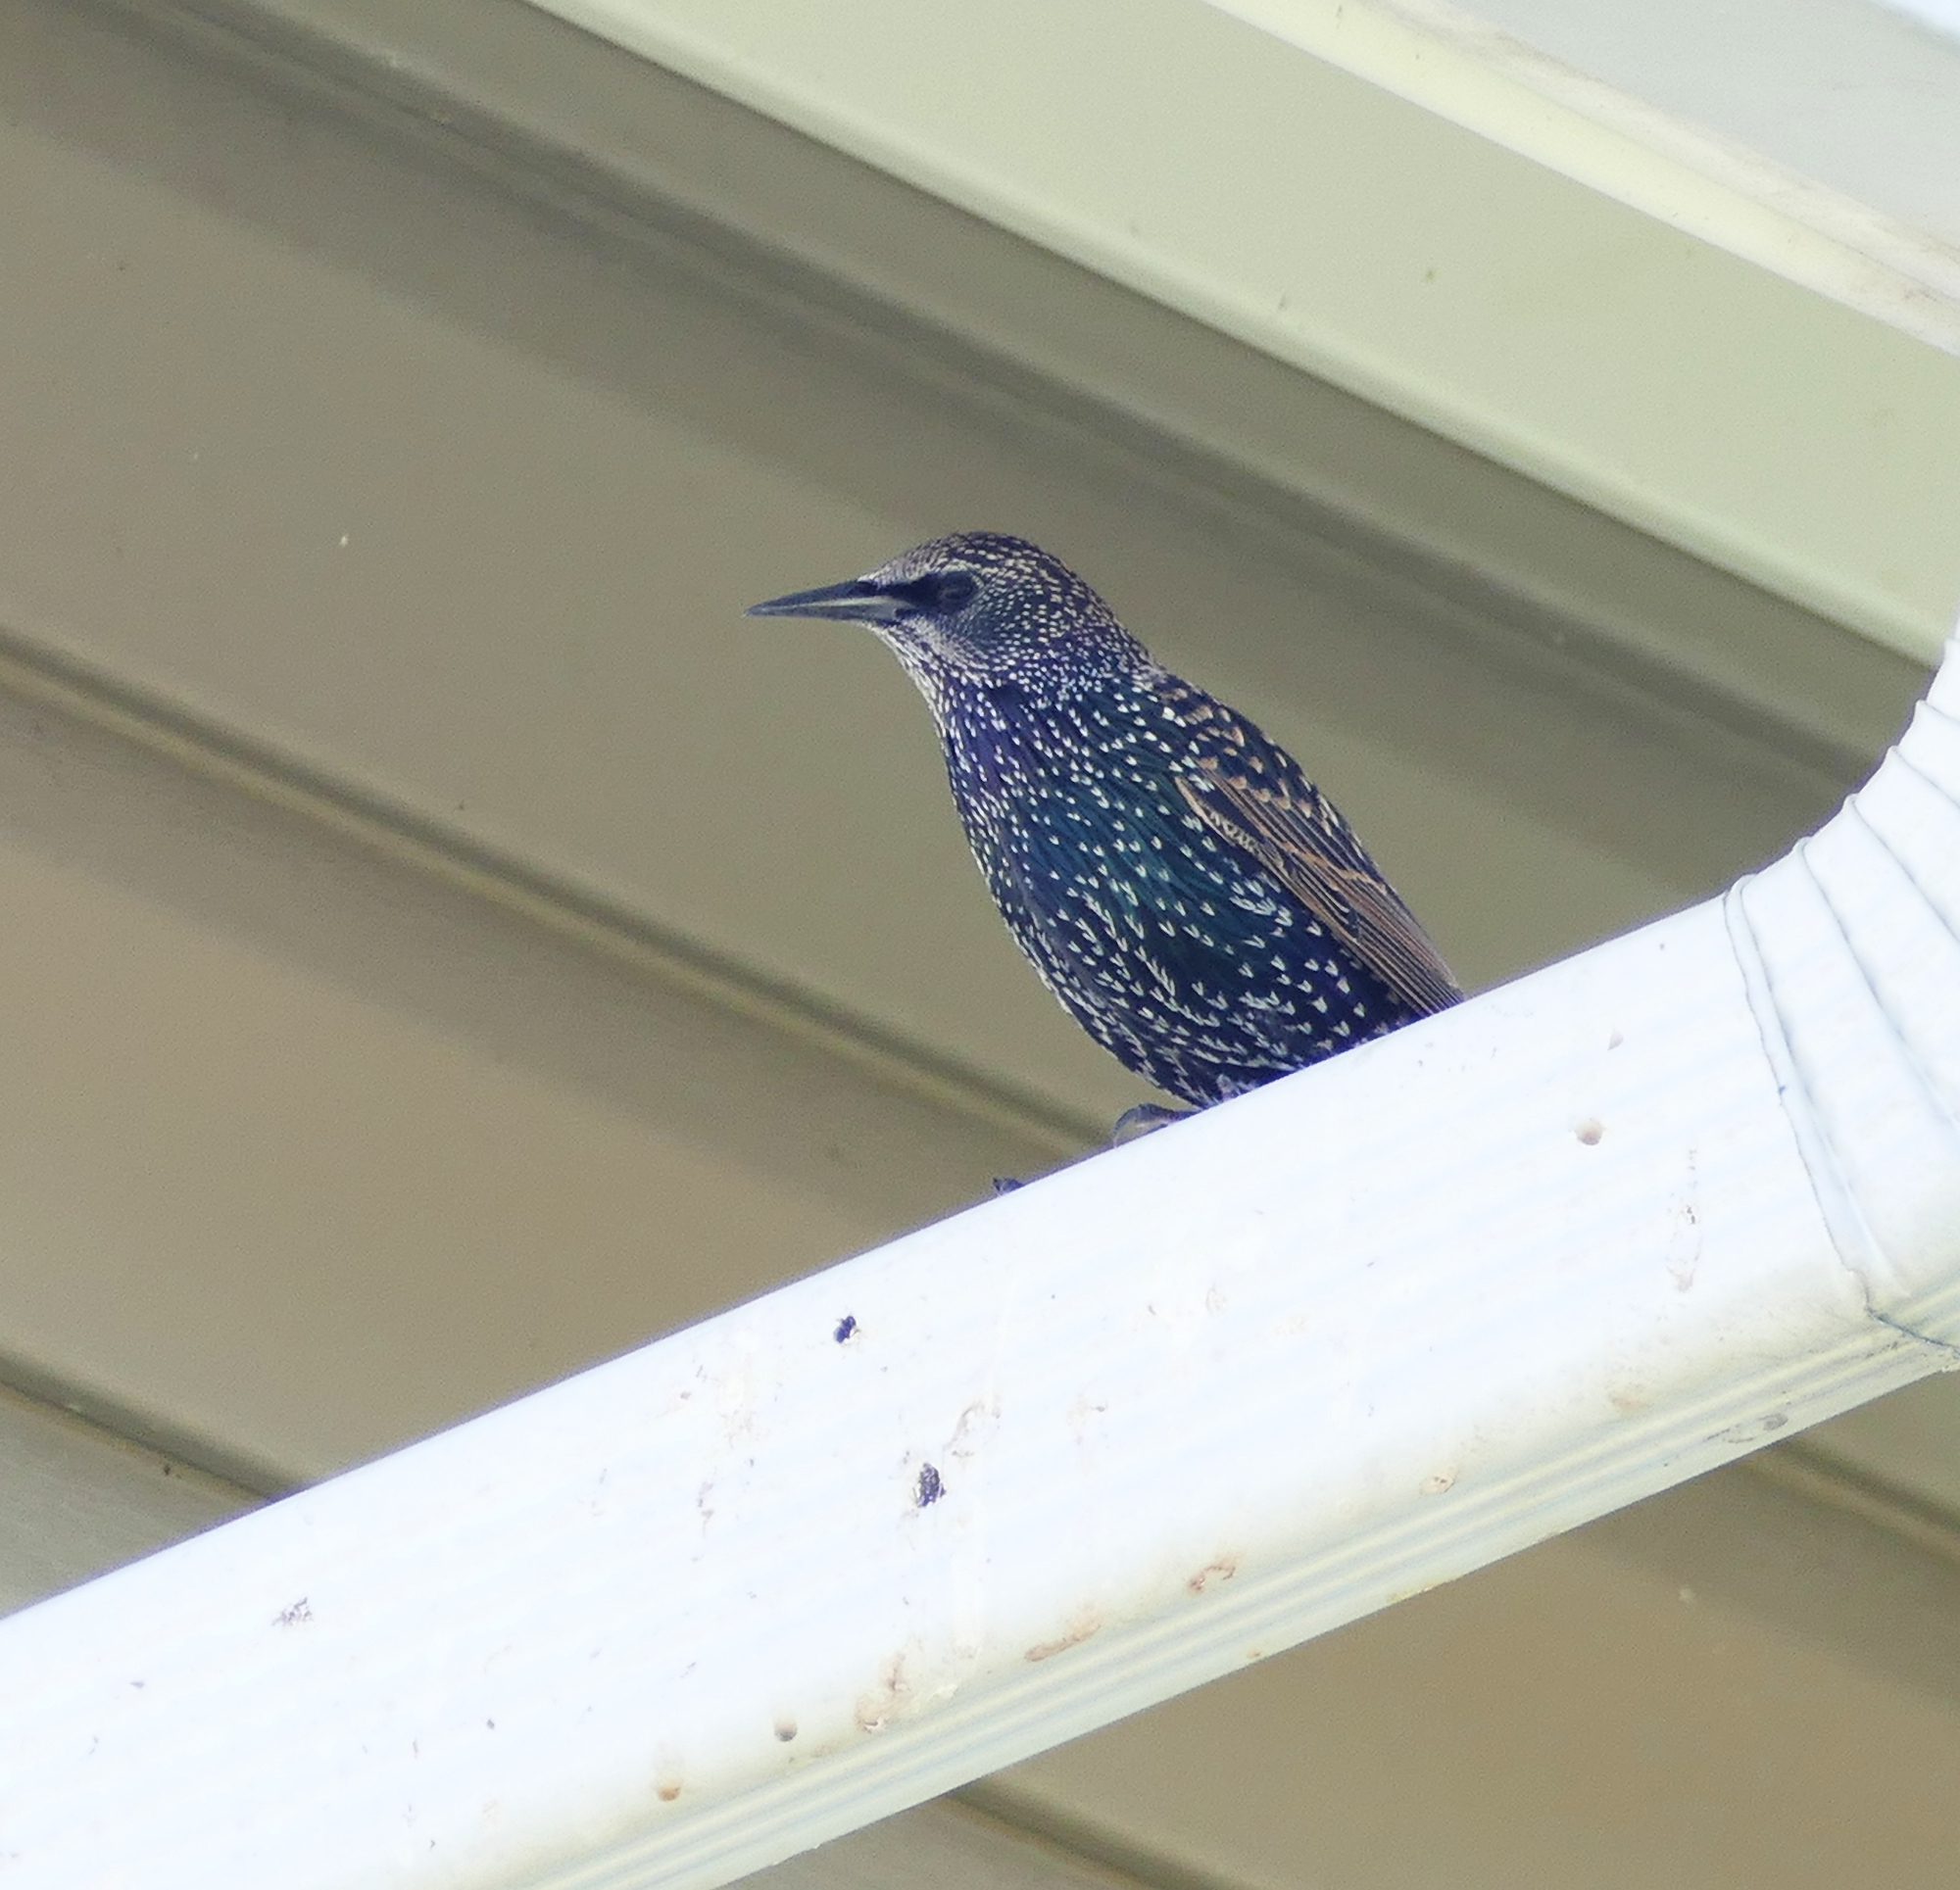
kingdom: Animalia
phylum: Chordata
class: Aves
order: Passeriformes
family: Sturnidae
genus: Sturnus
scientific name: Sturnus vulgaris
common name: Common starling
